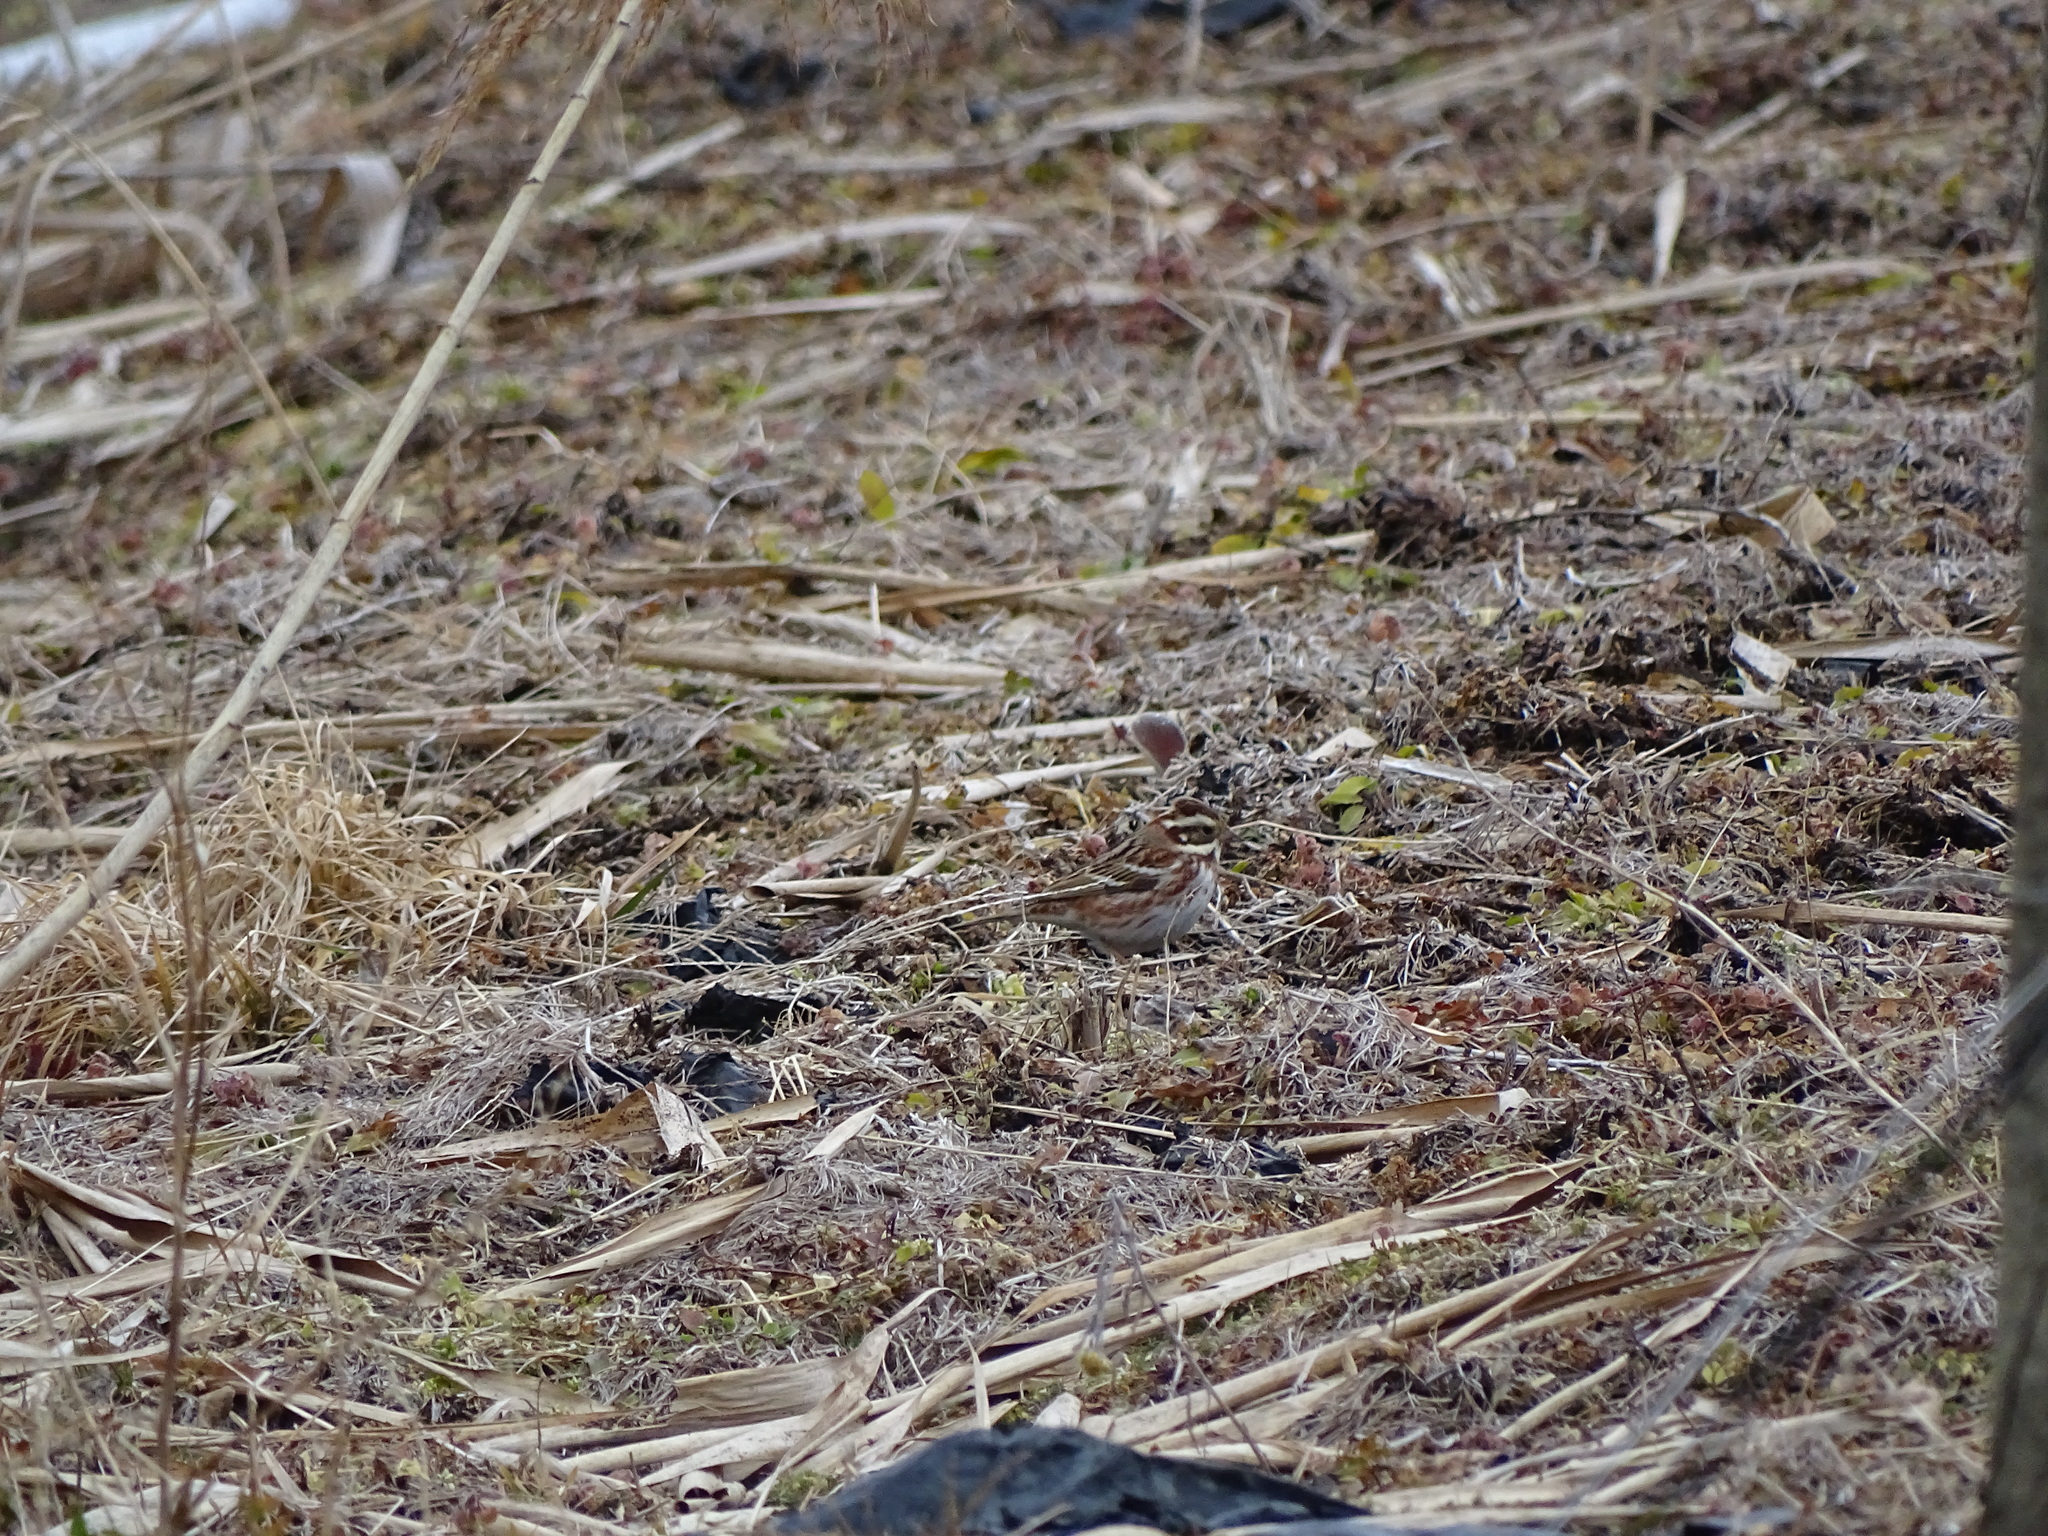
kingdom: Animalia
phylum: Chordata
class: Aves
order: Passeriformes
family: Emberizidae
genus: Emberiza
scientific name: Emberiza rustica
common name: Rustic bunting
